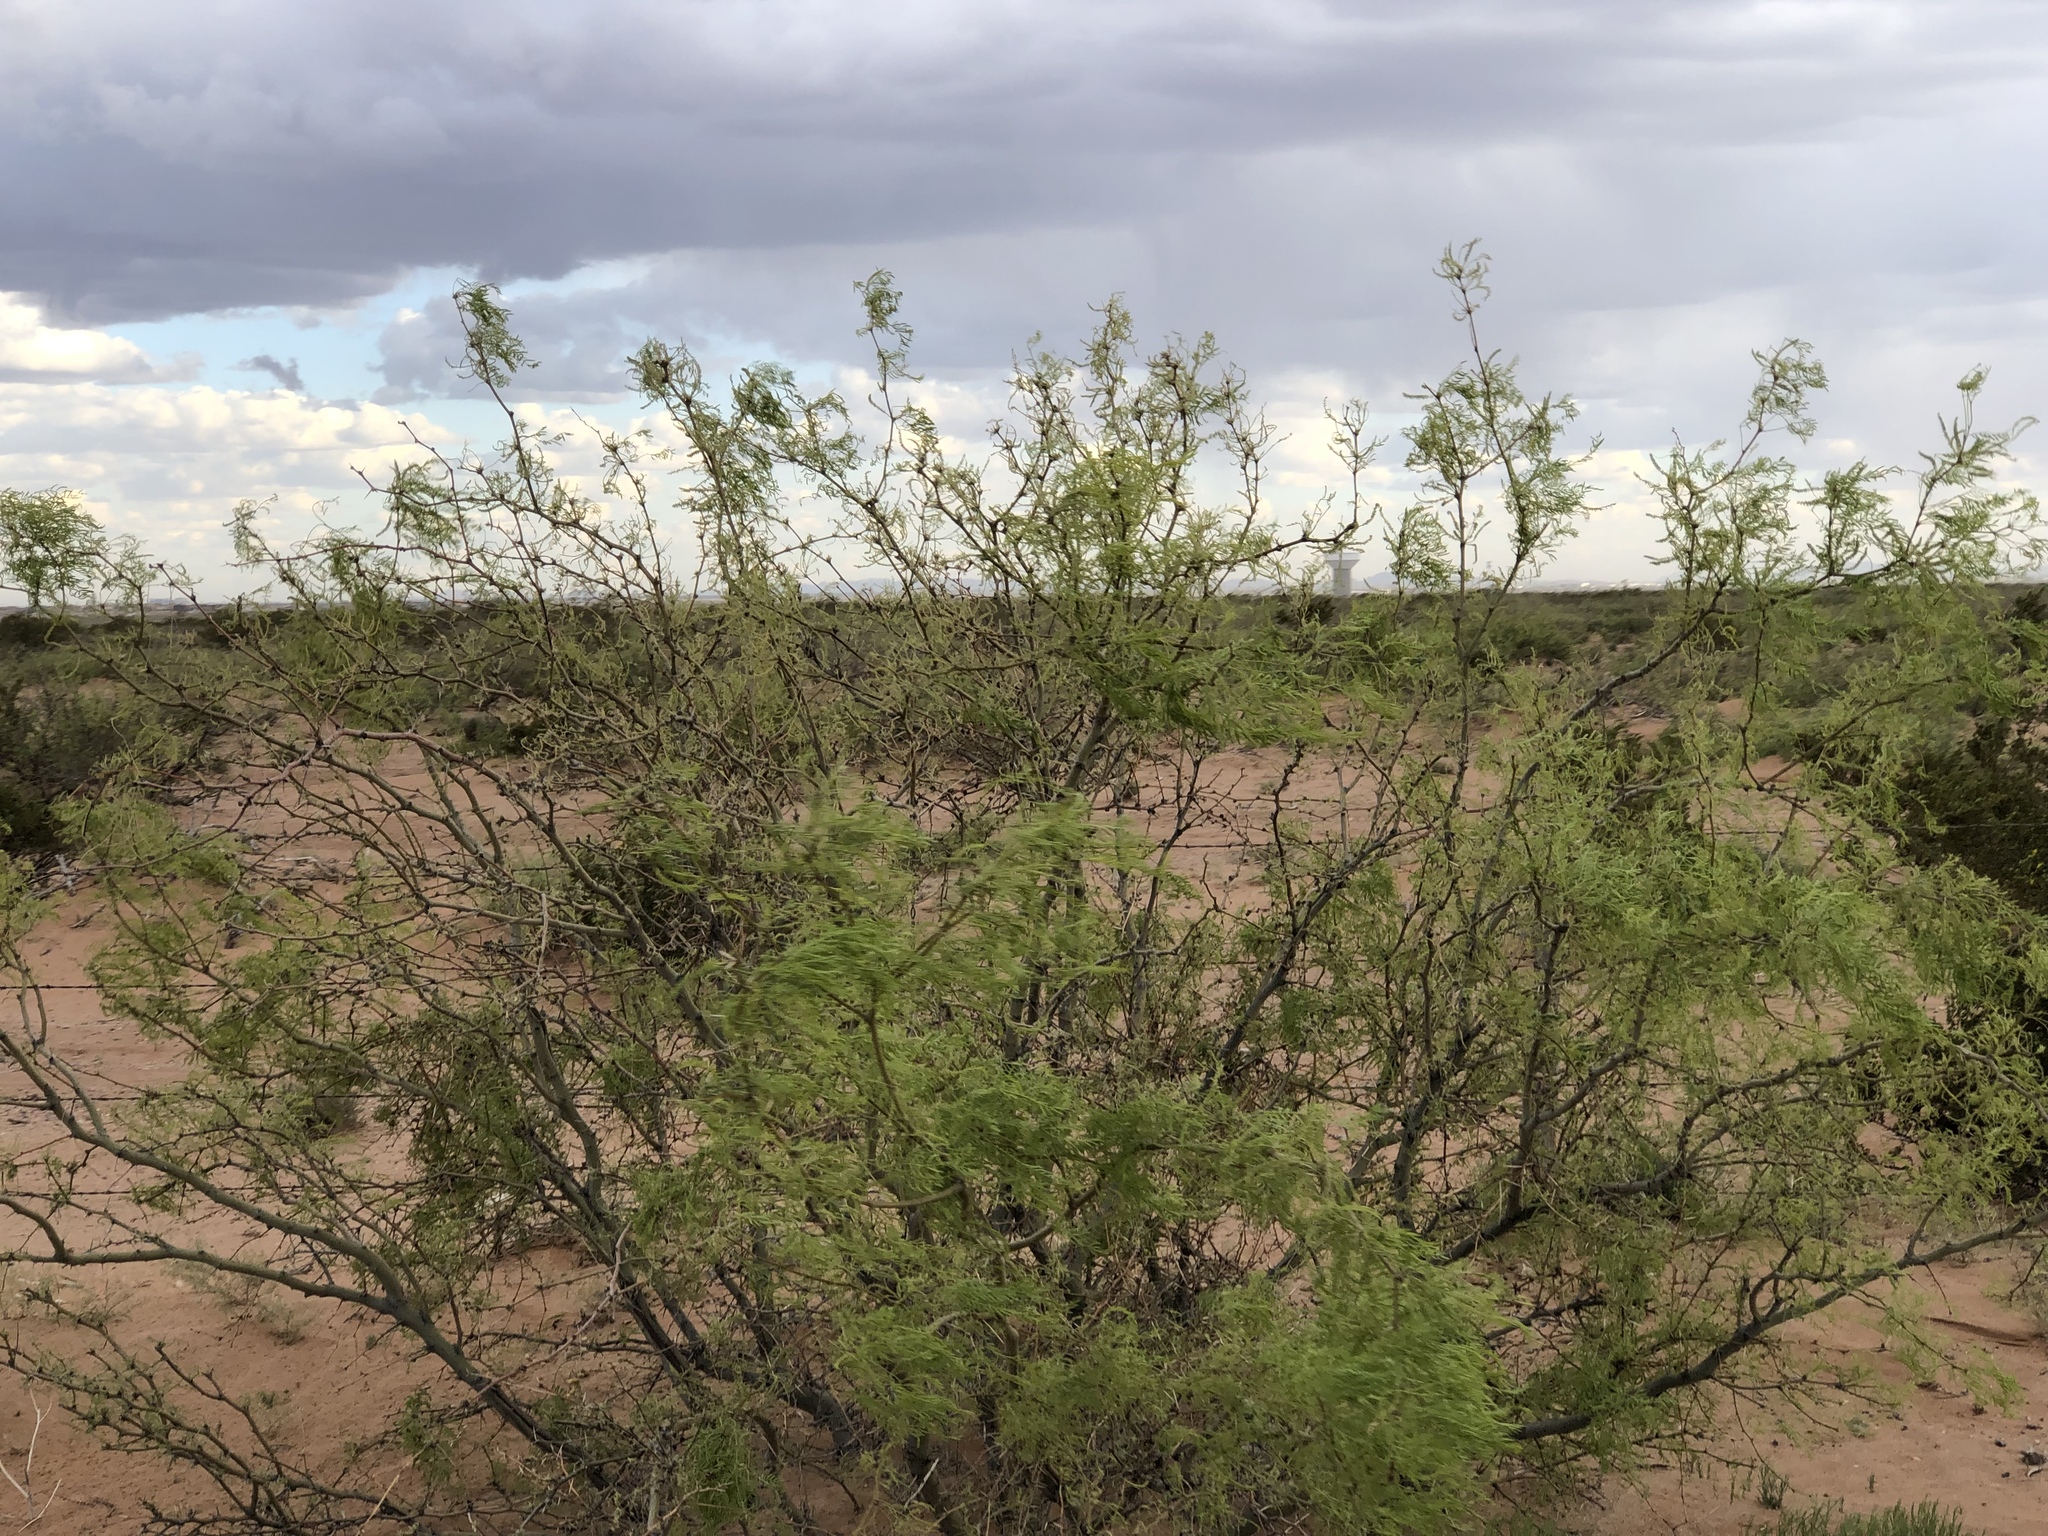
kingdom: Plantae
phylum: Tracheophyta
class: Magnoliopsida
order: Fabales
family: Fabaceae
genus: Prosopis
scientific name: Prosopis glandulosa
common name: Honey mesquite
